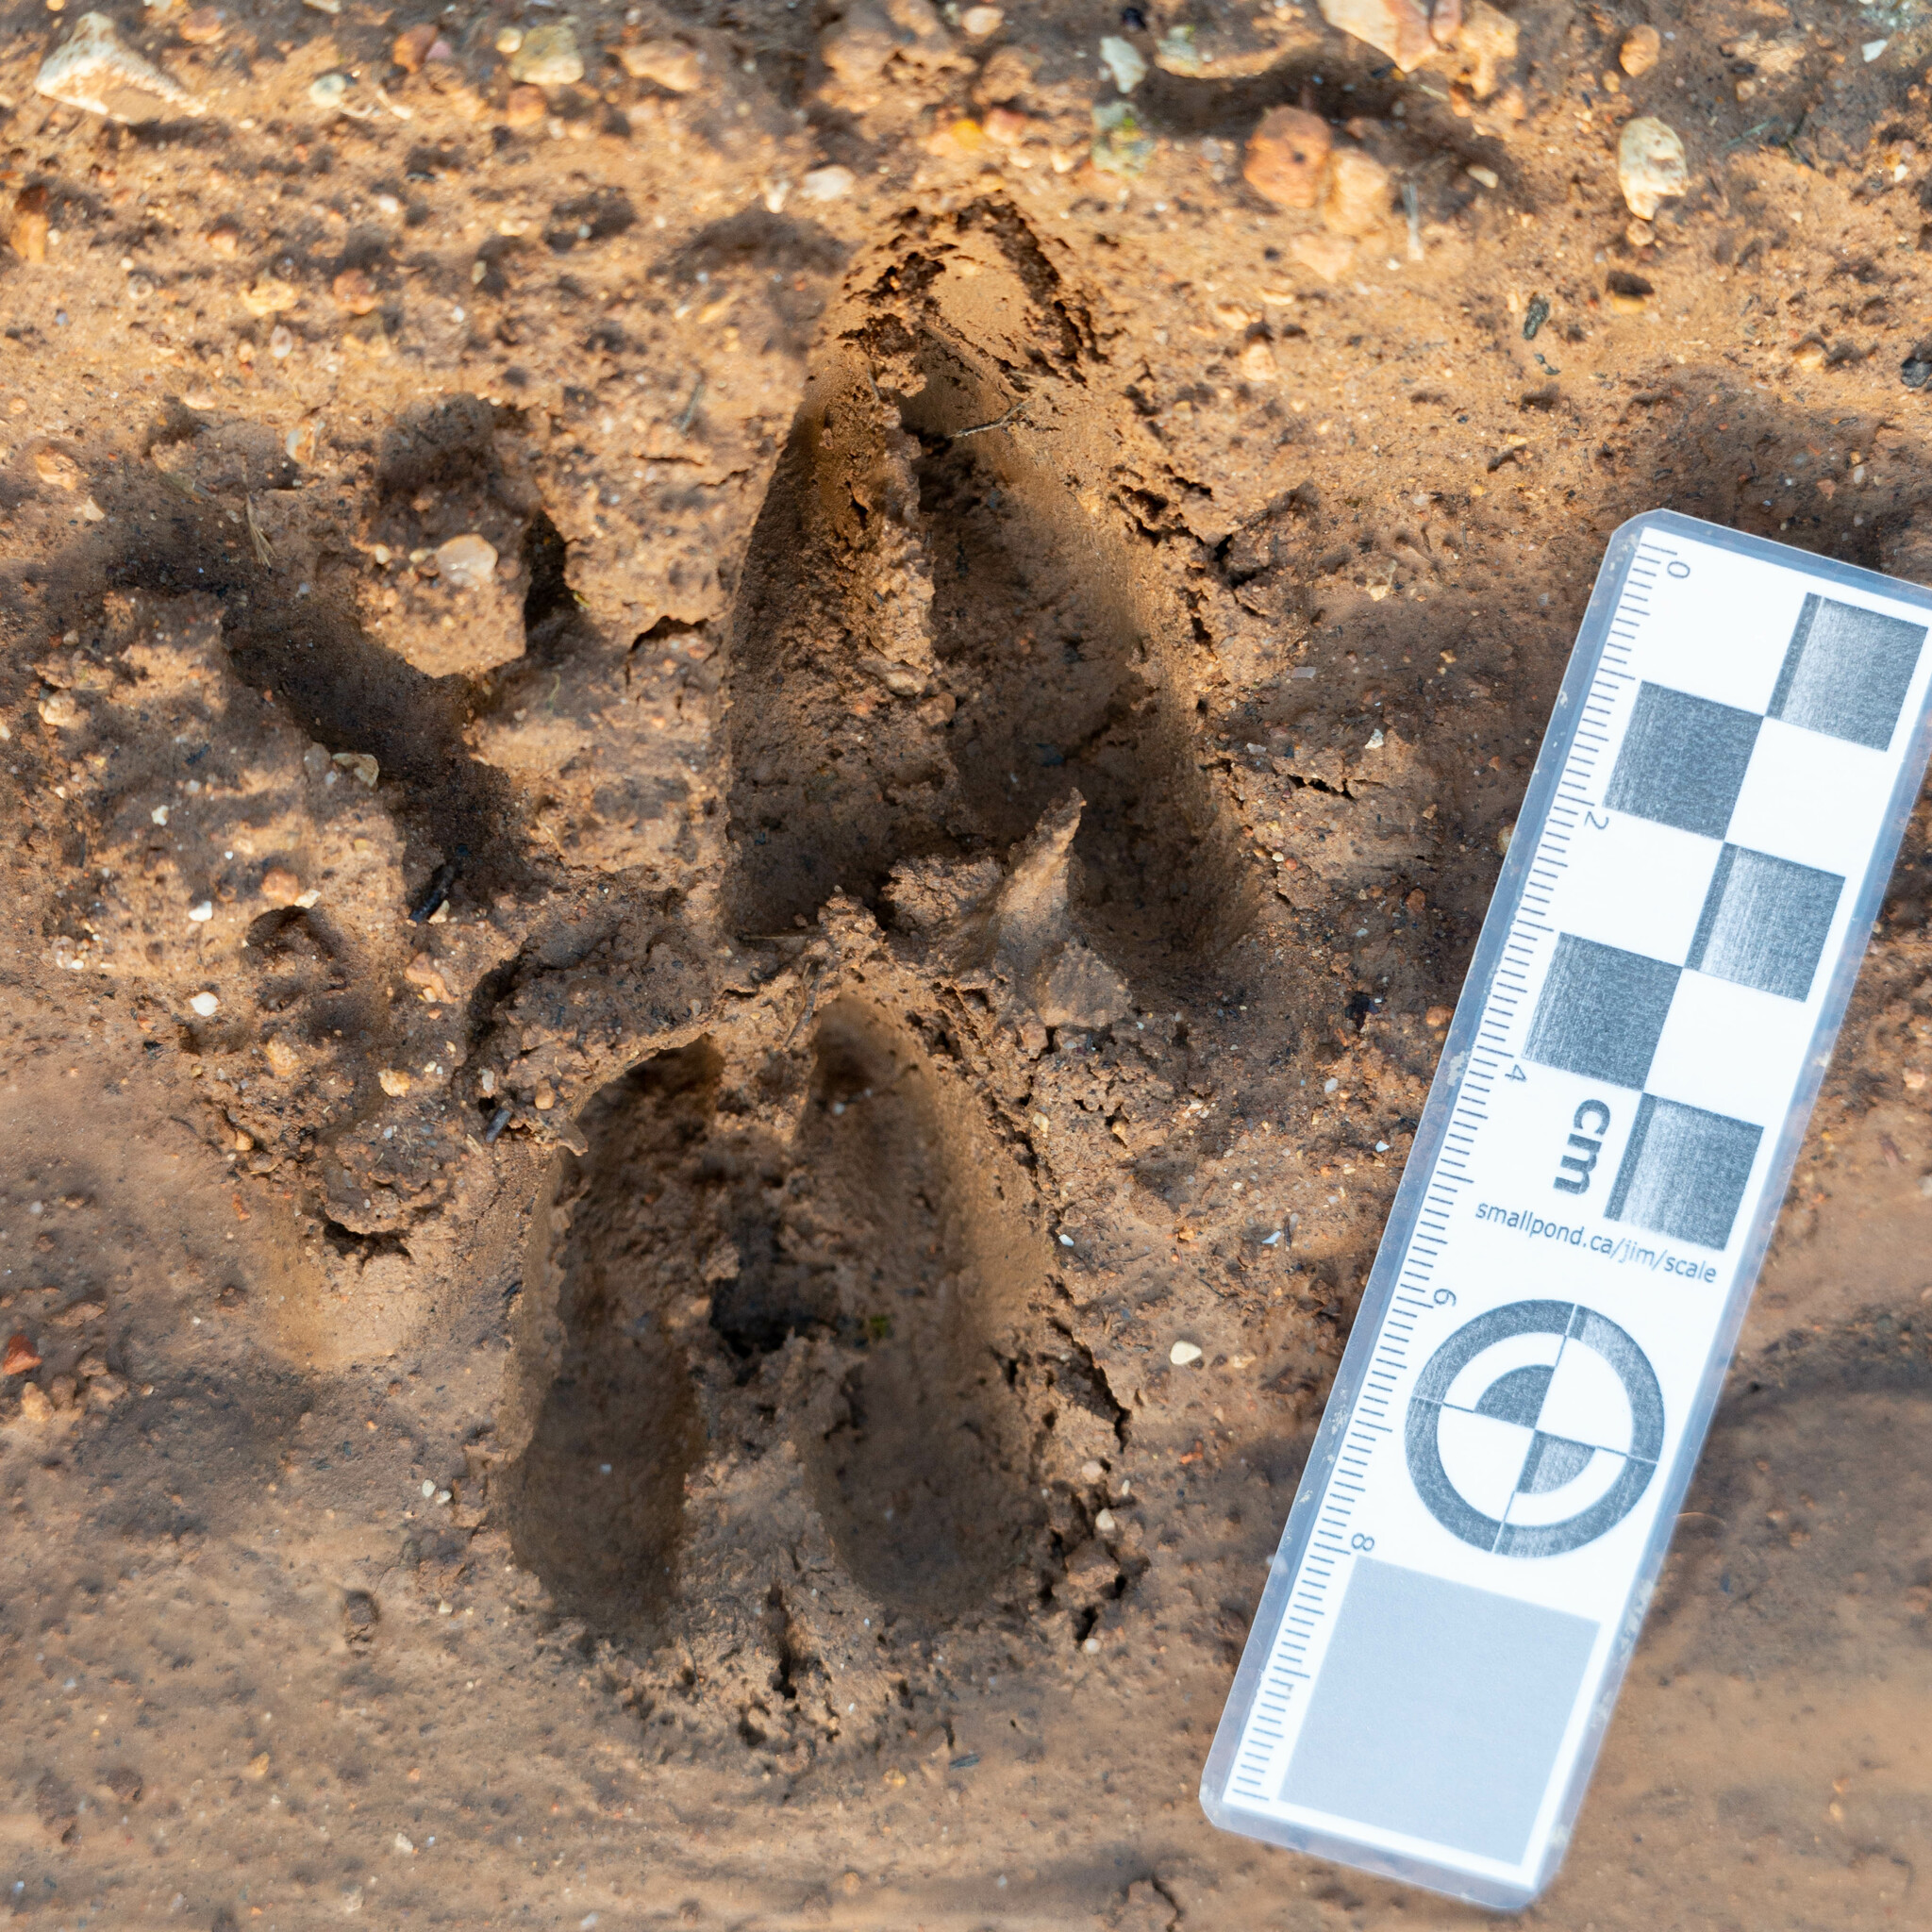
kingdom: Animalia
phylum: Chordata
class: Mammalia
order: Artiodactyla
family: Cervidae
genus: Capreolus
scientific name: Capreolus capreolus
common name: Western roe deer
